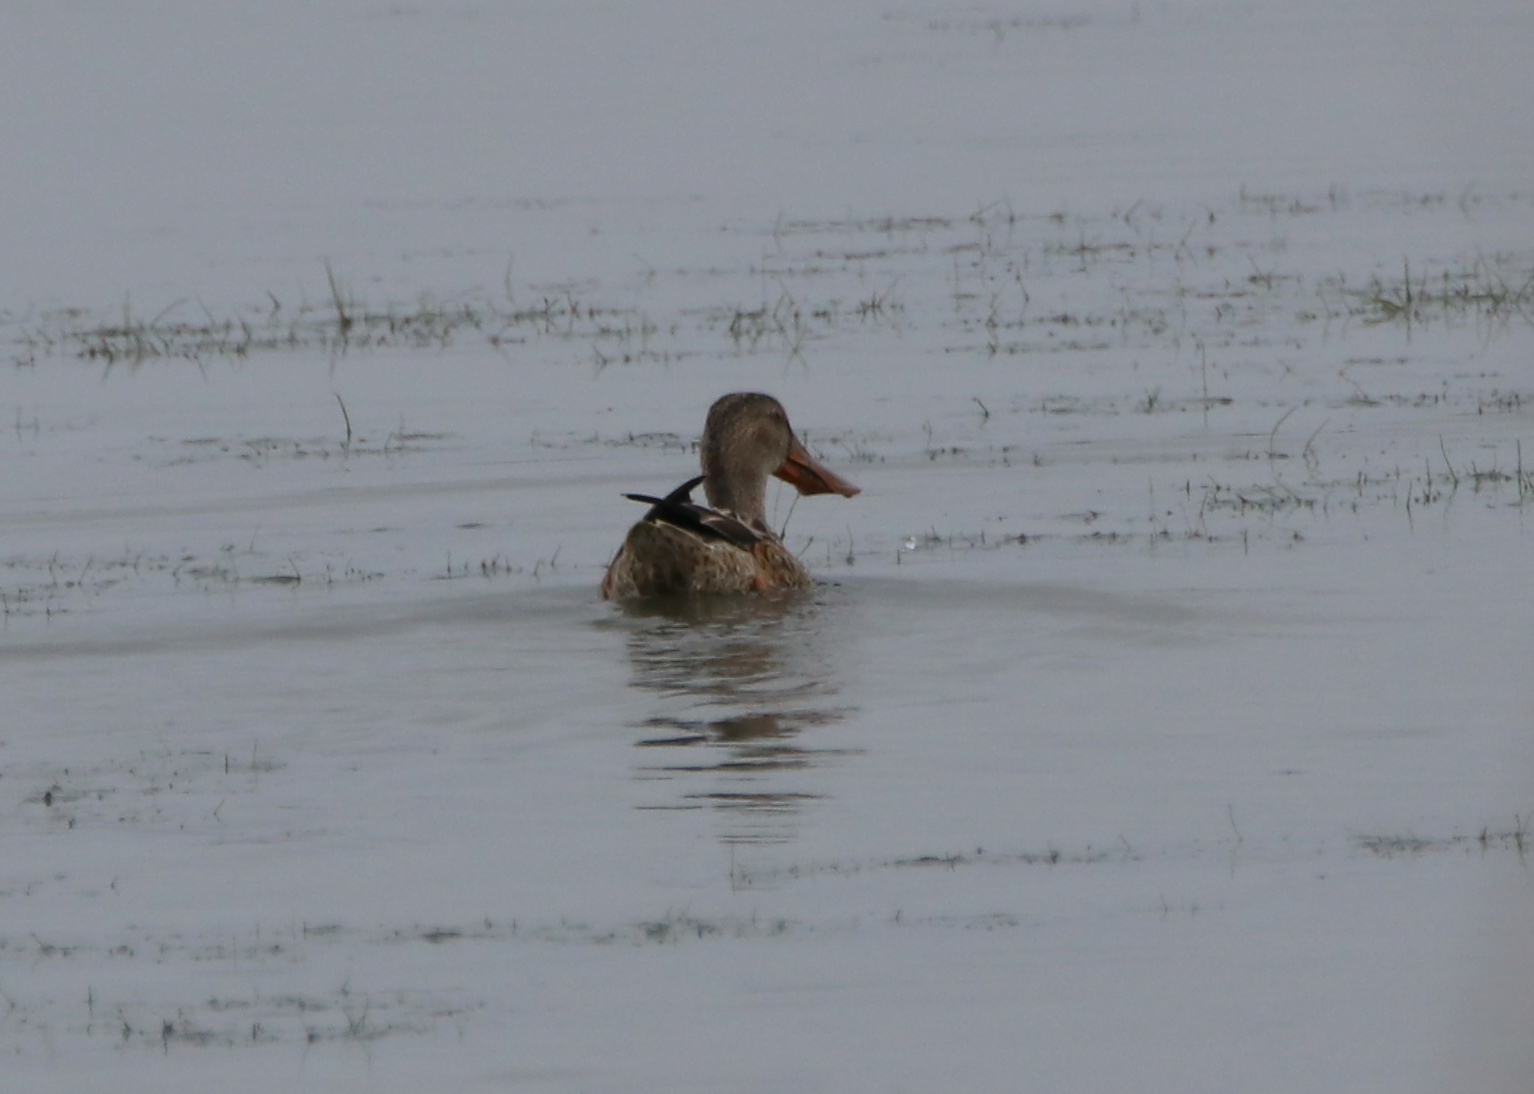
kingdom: Animalia
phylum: Chordata
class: Aves
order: Anseriformes
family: Anatidae
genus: Spatula
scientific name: Spatula clypeata
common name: Northern shoveler
